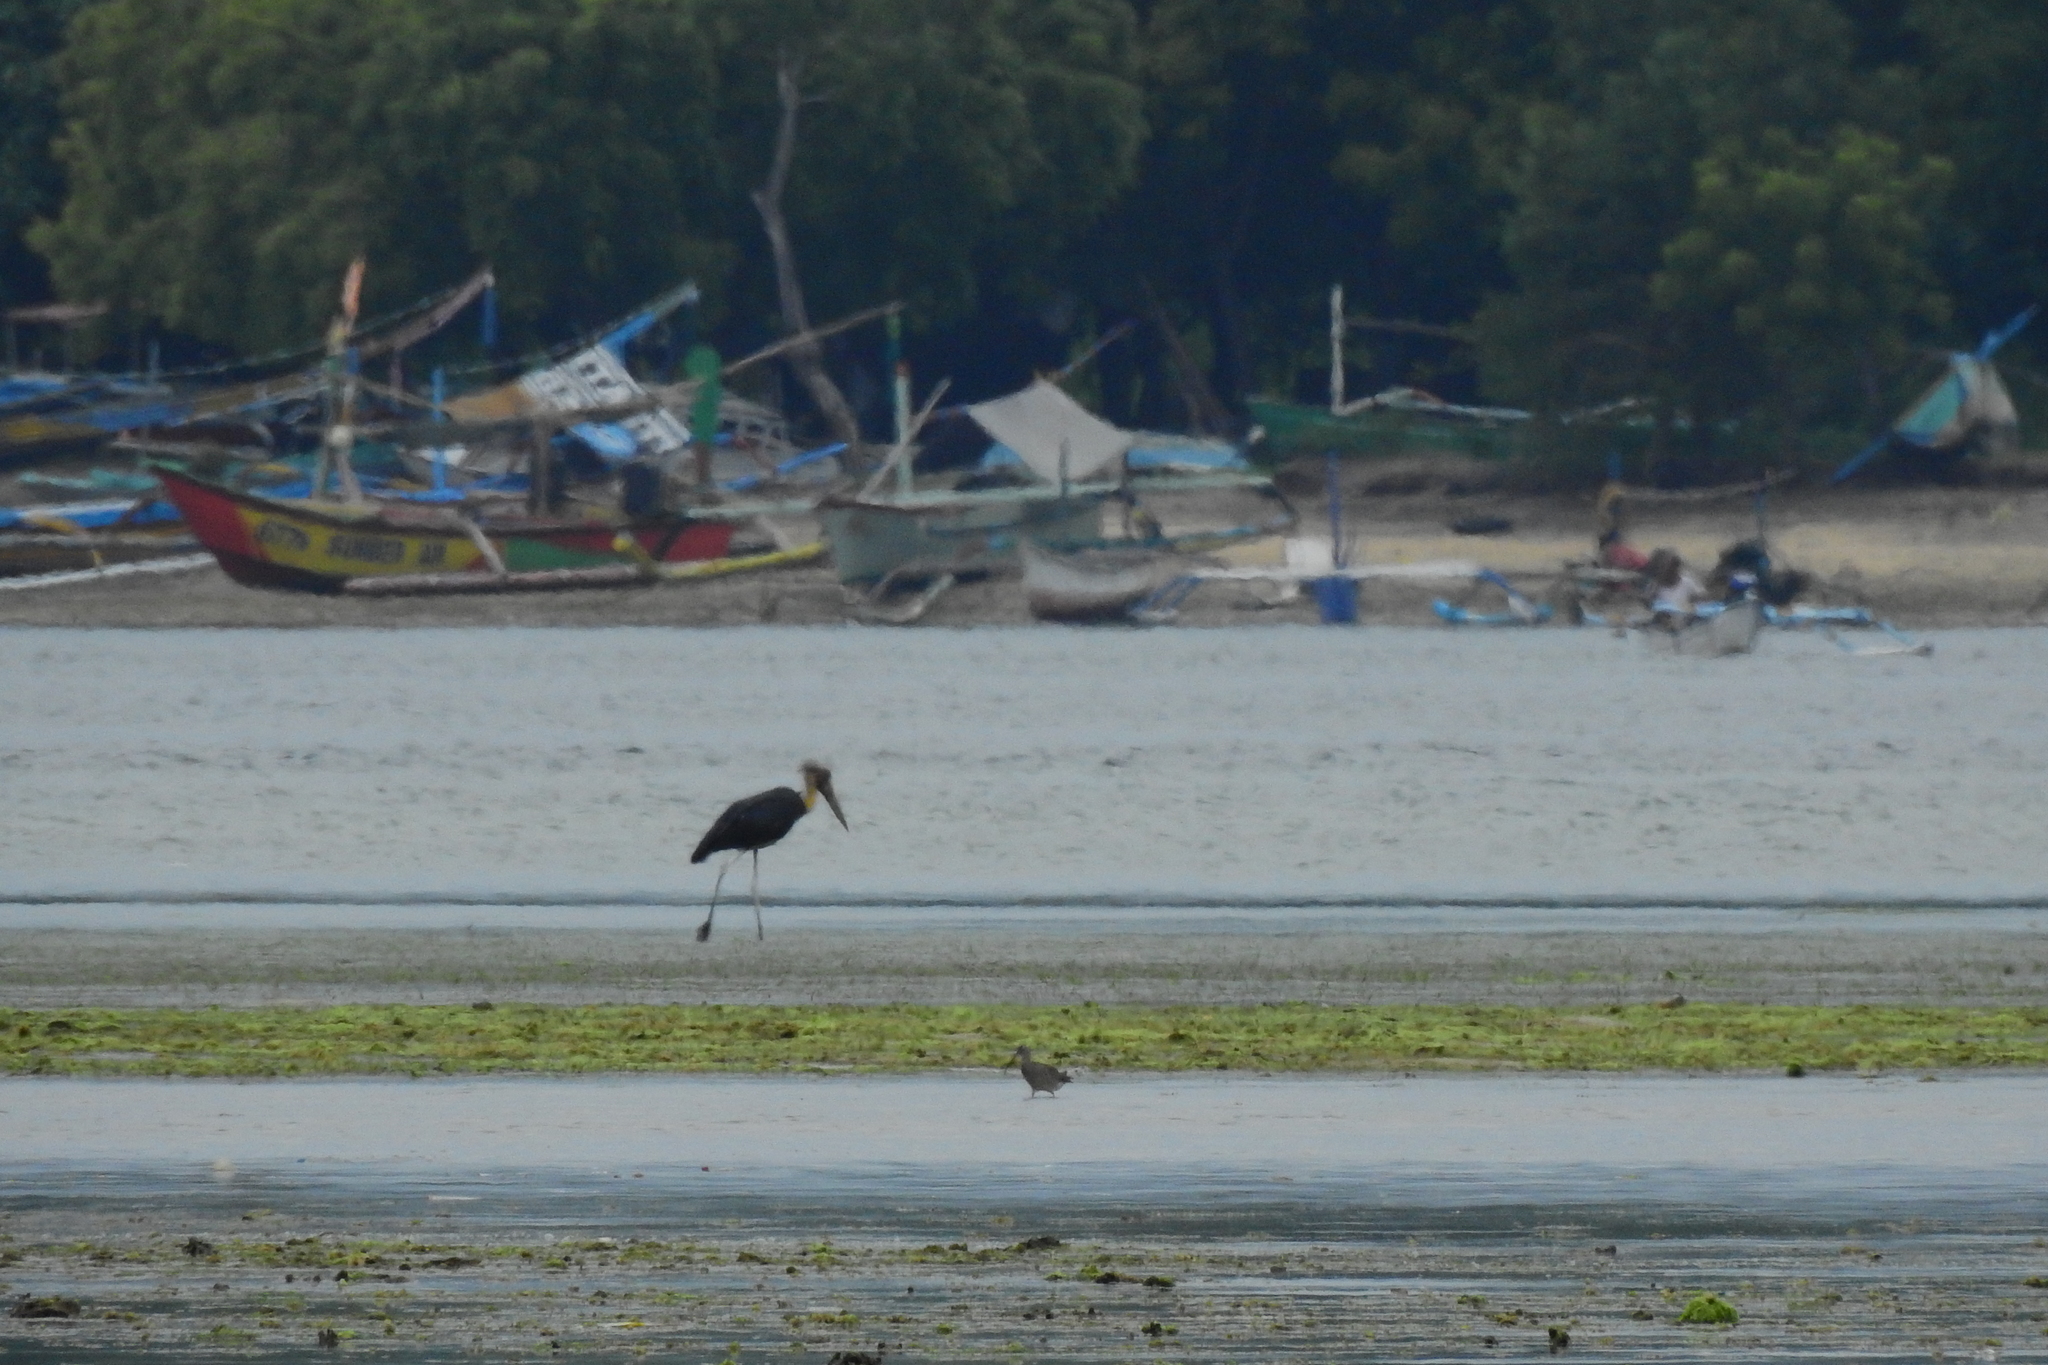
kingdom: Animalia
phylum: Chordata
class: Aves
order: Ciconiiformes
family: Ciconiidae
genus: Leptoptilos
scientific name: Leptoptilos javanicus
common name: Lesser adjutant
